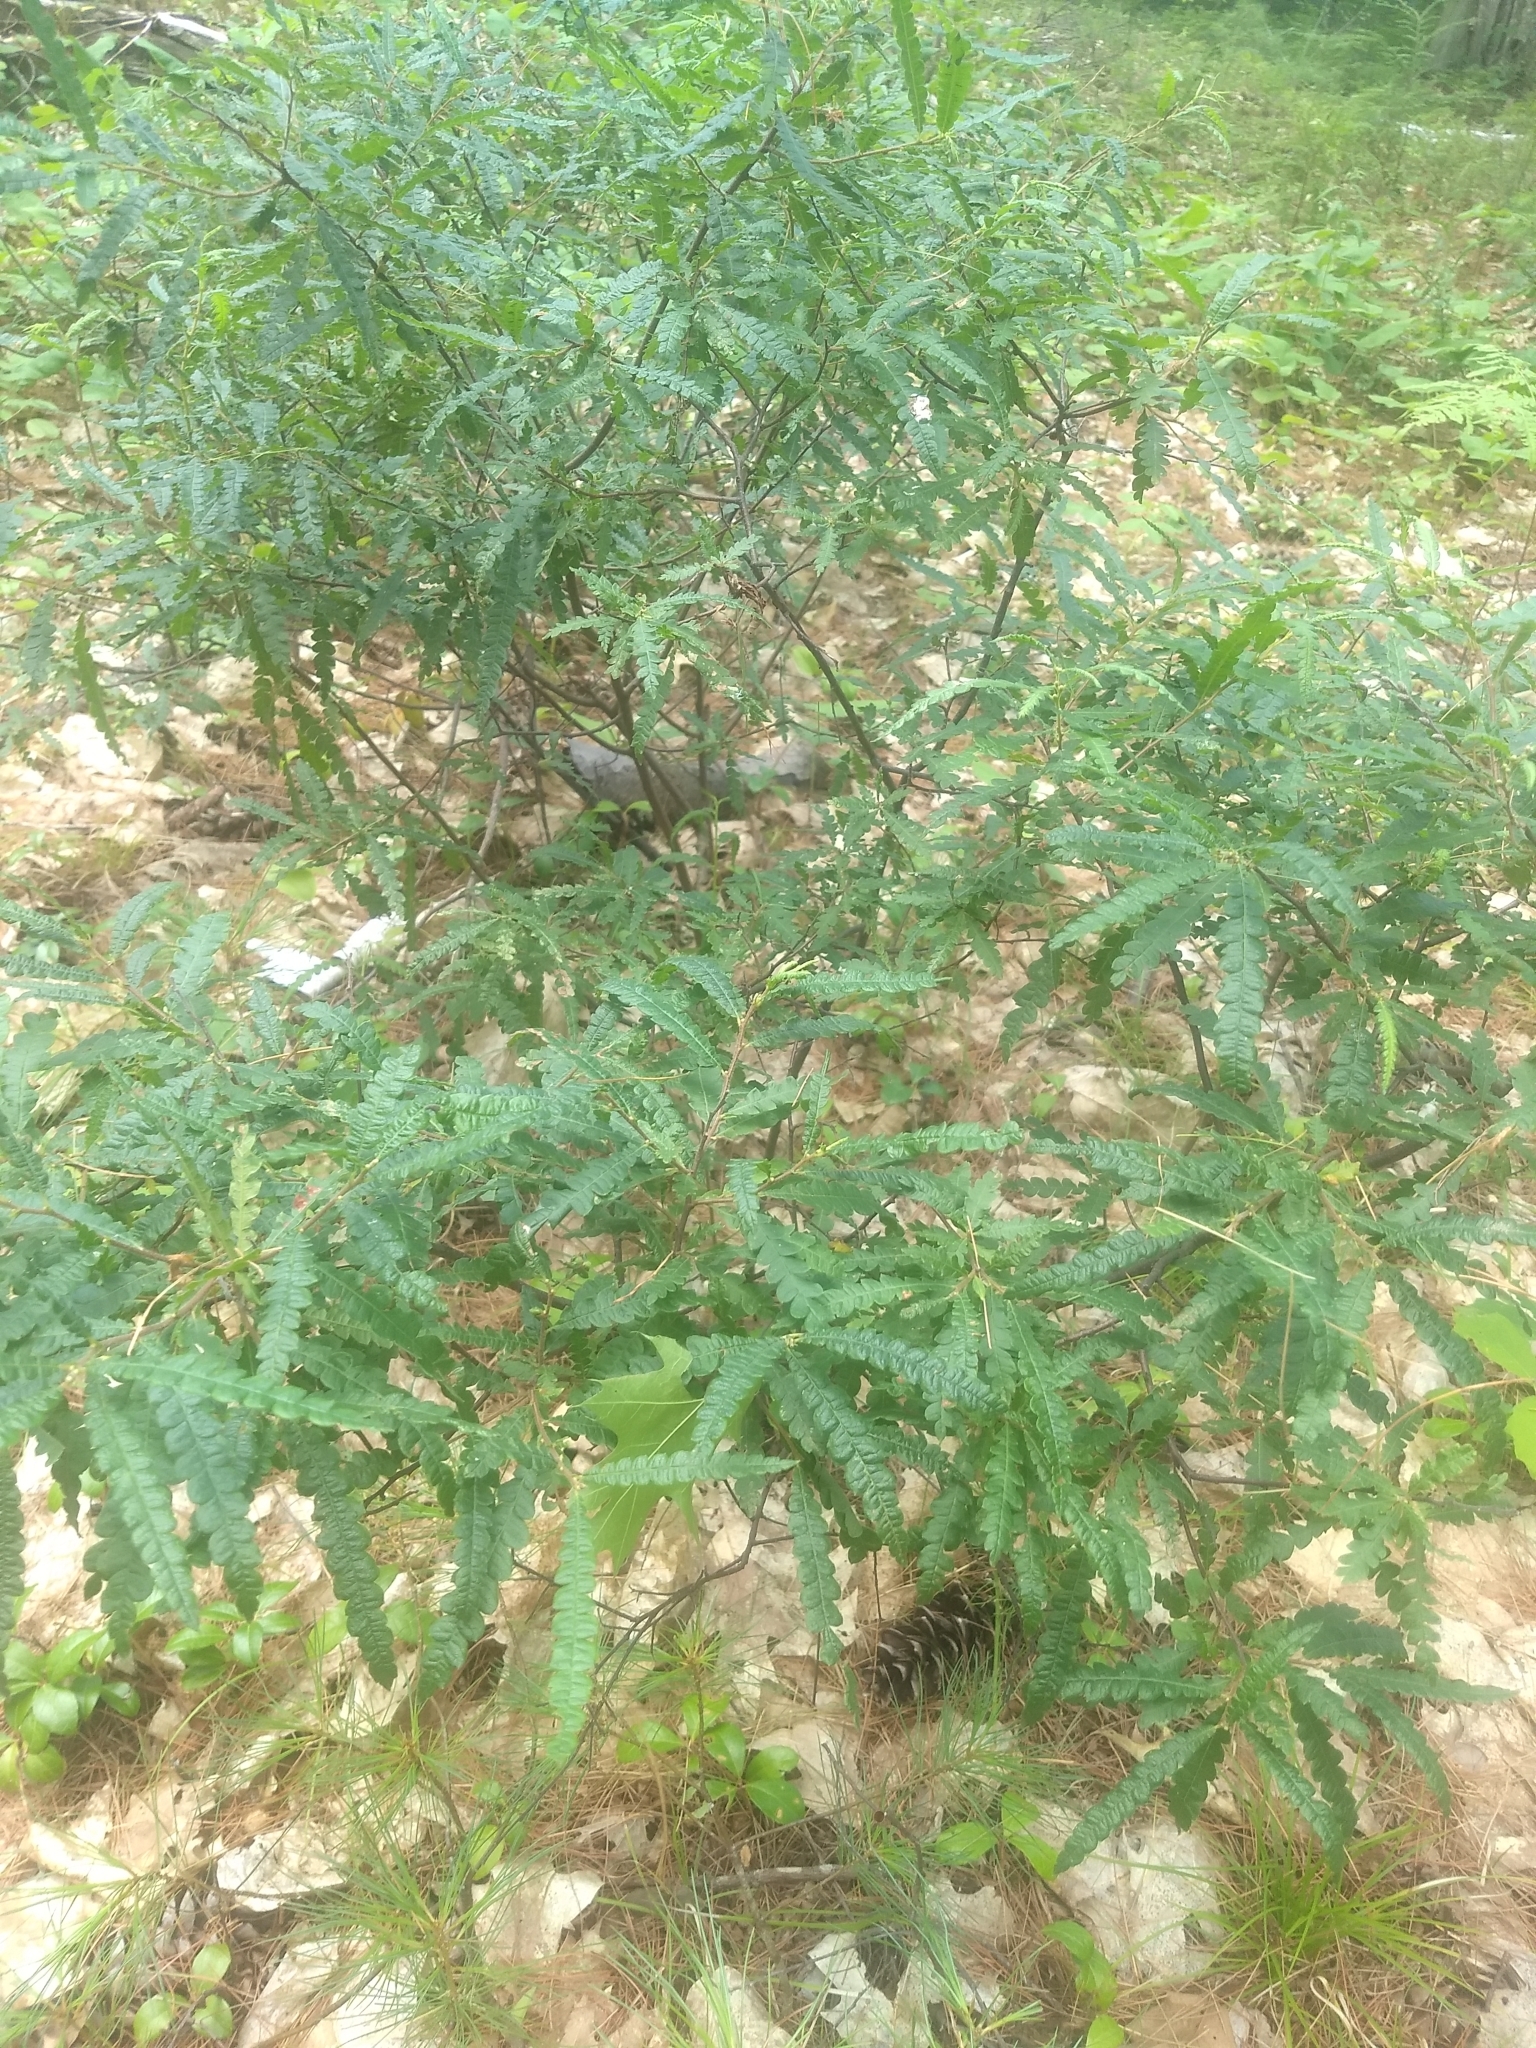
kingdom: Plantae
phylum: Tracheophyta
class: Magnoliopsida
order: Fagales
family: Myricaceae
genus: Comptonia
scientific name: Comptonia peregrina
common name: Sweet-fern
